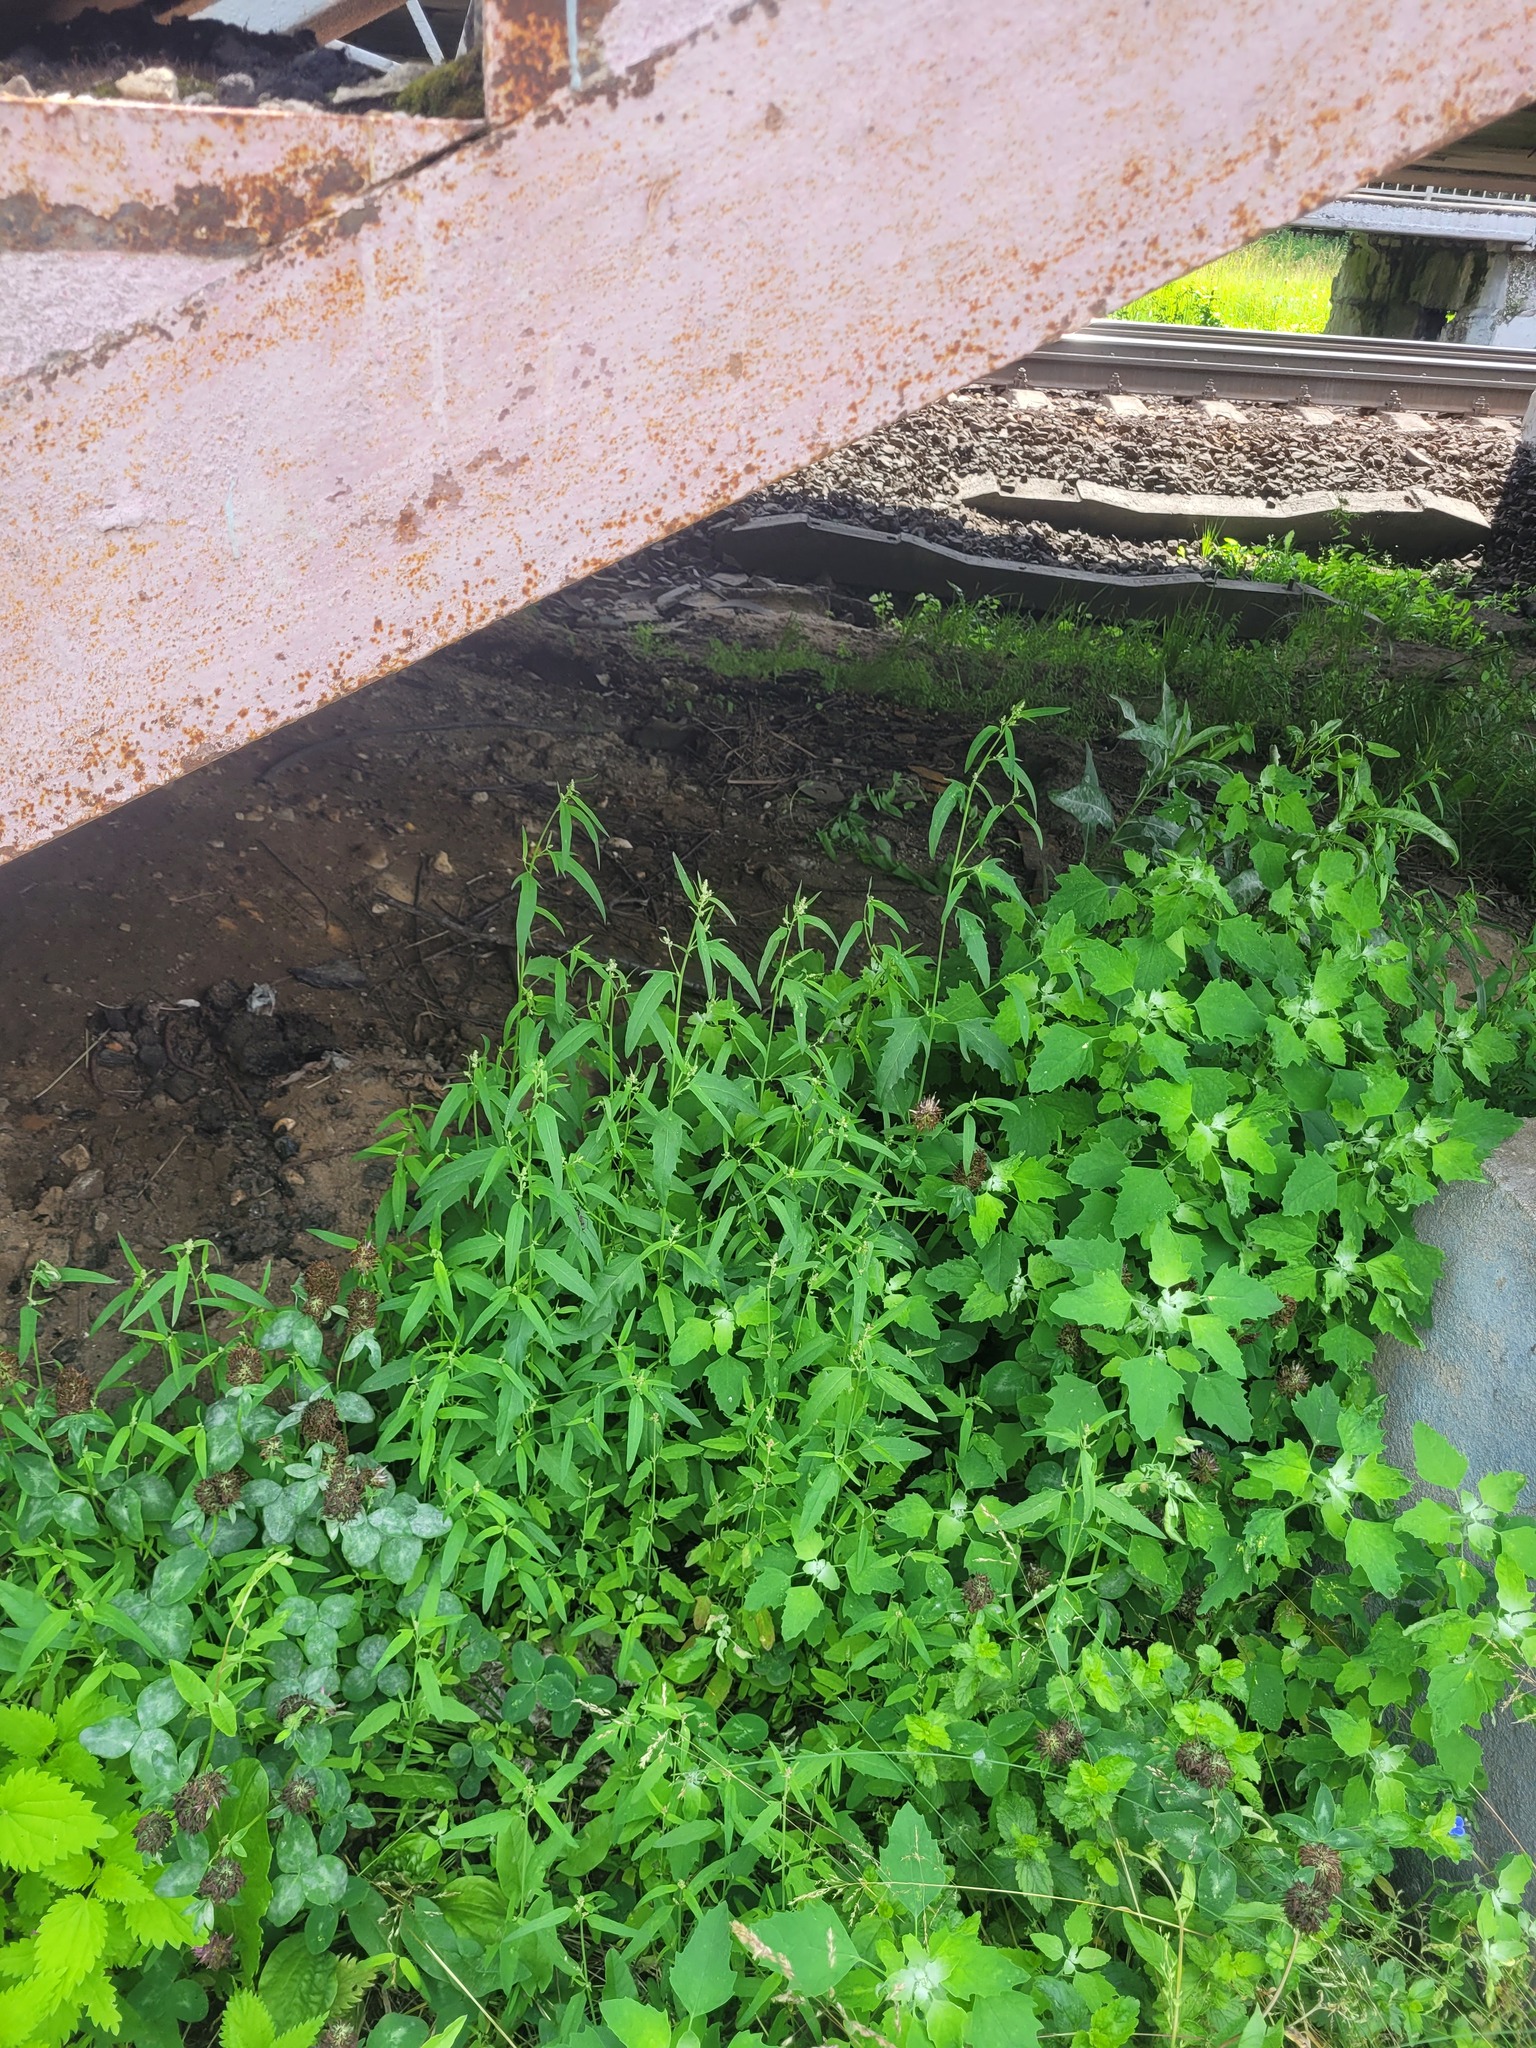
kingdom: Plantae
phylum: Tracheophyta
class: Magnoliopsida
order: Caryophyllales
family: Amaranthaceae
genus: Atriplex
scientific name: Atriplex patula
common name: Common orache
